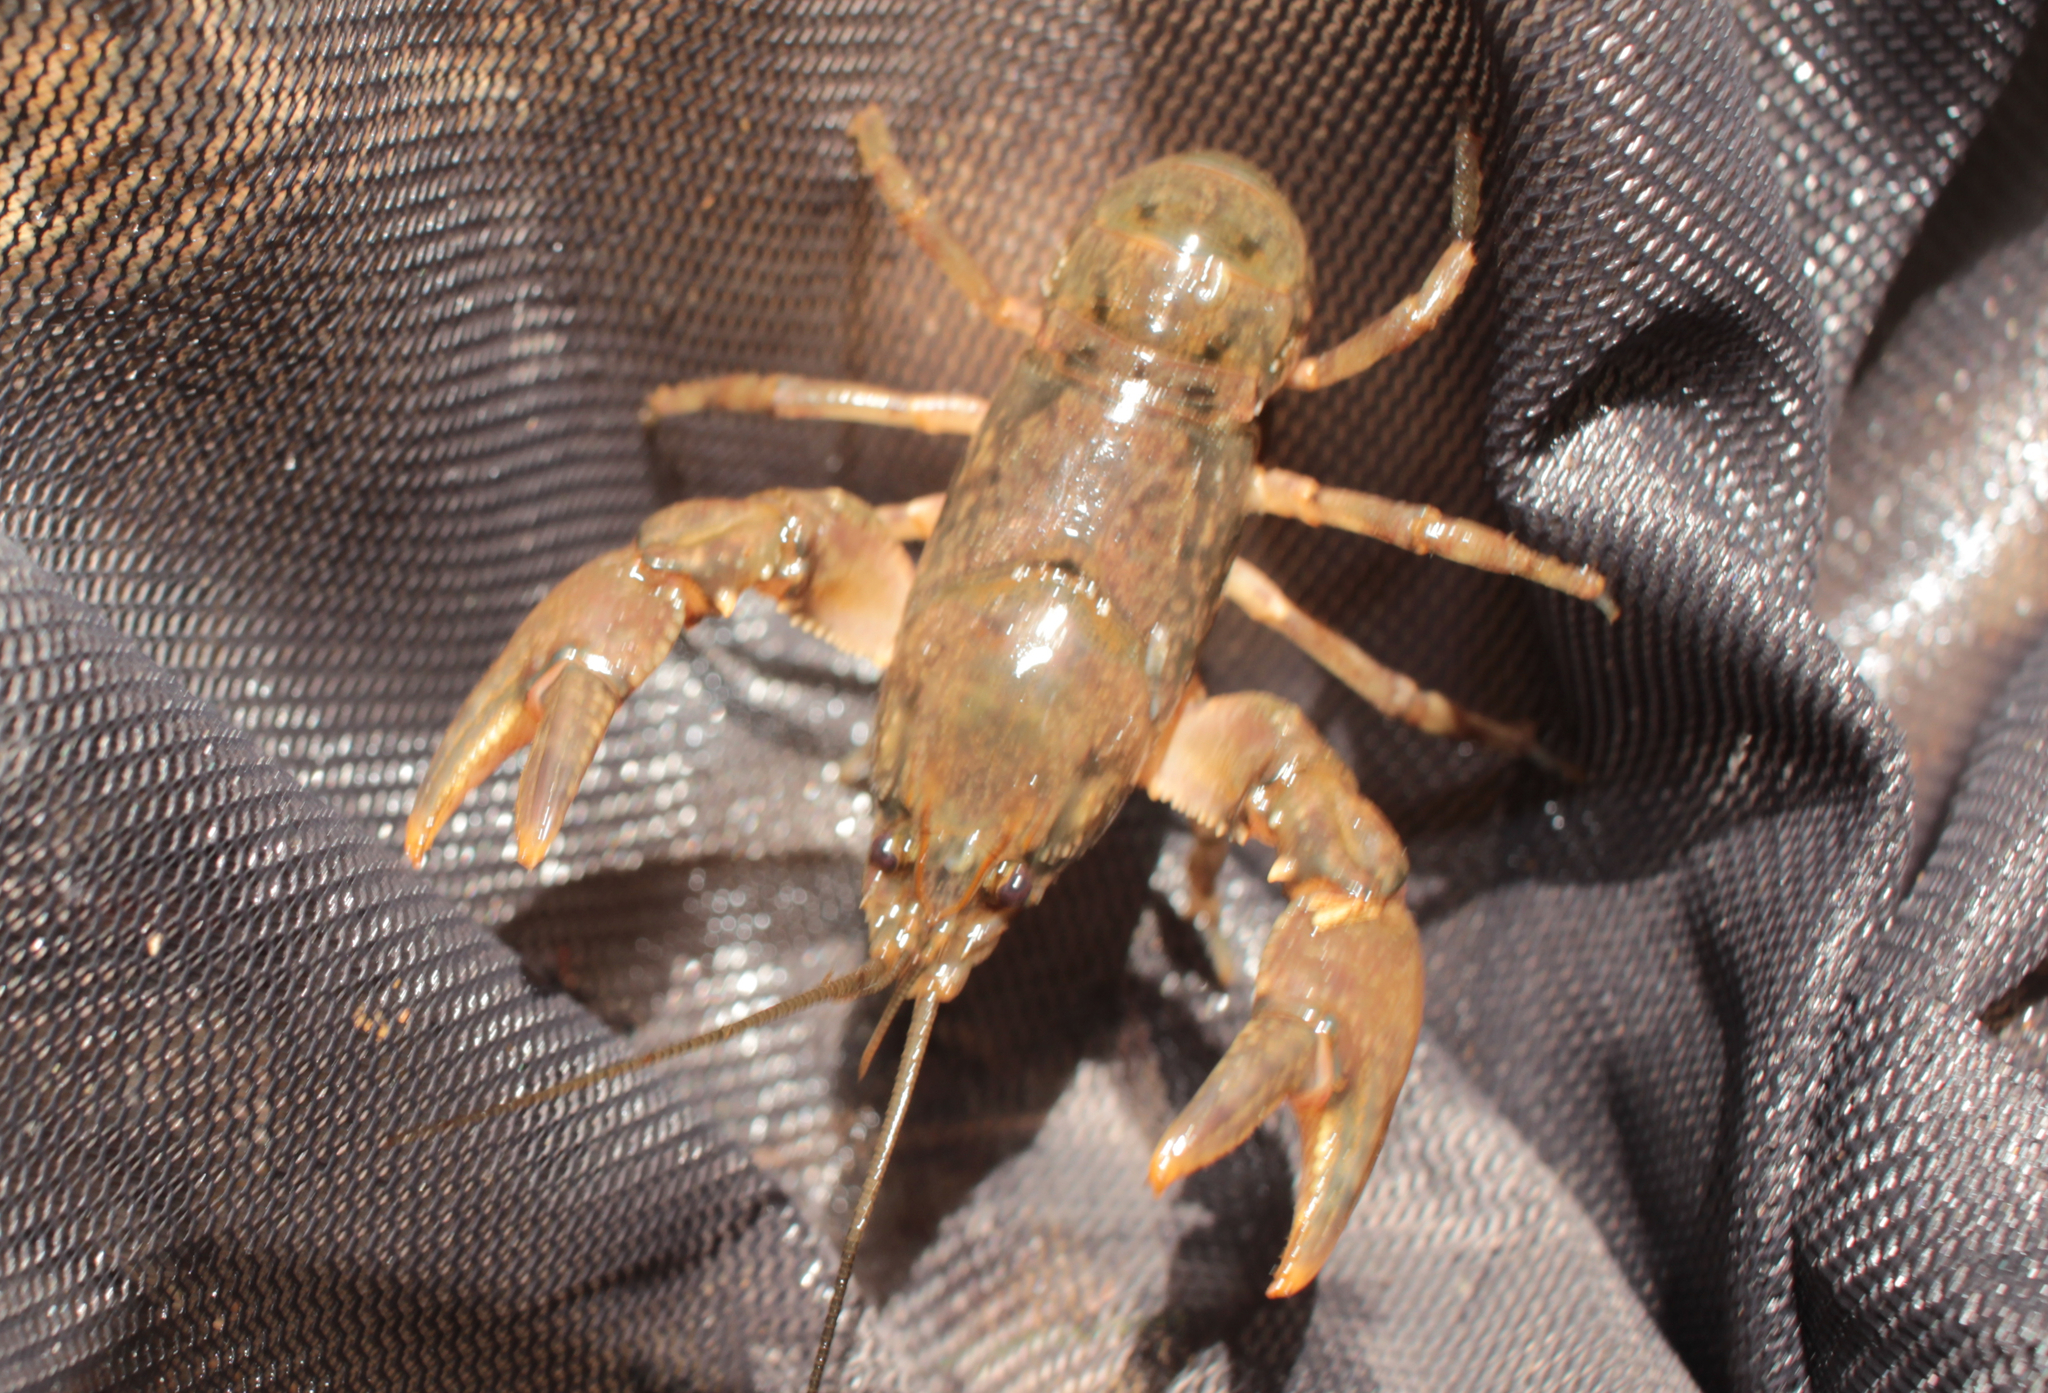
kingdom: Animalia
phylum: Arthropoda
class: Malacostraca
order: Decapoda
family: Cambaridae
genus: Cambarus
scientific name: Cambarus latimanus
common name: Variable crayfish
